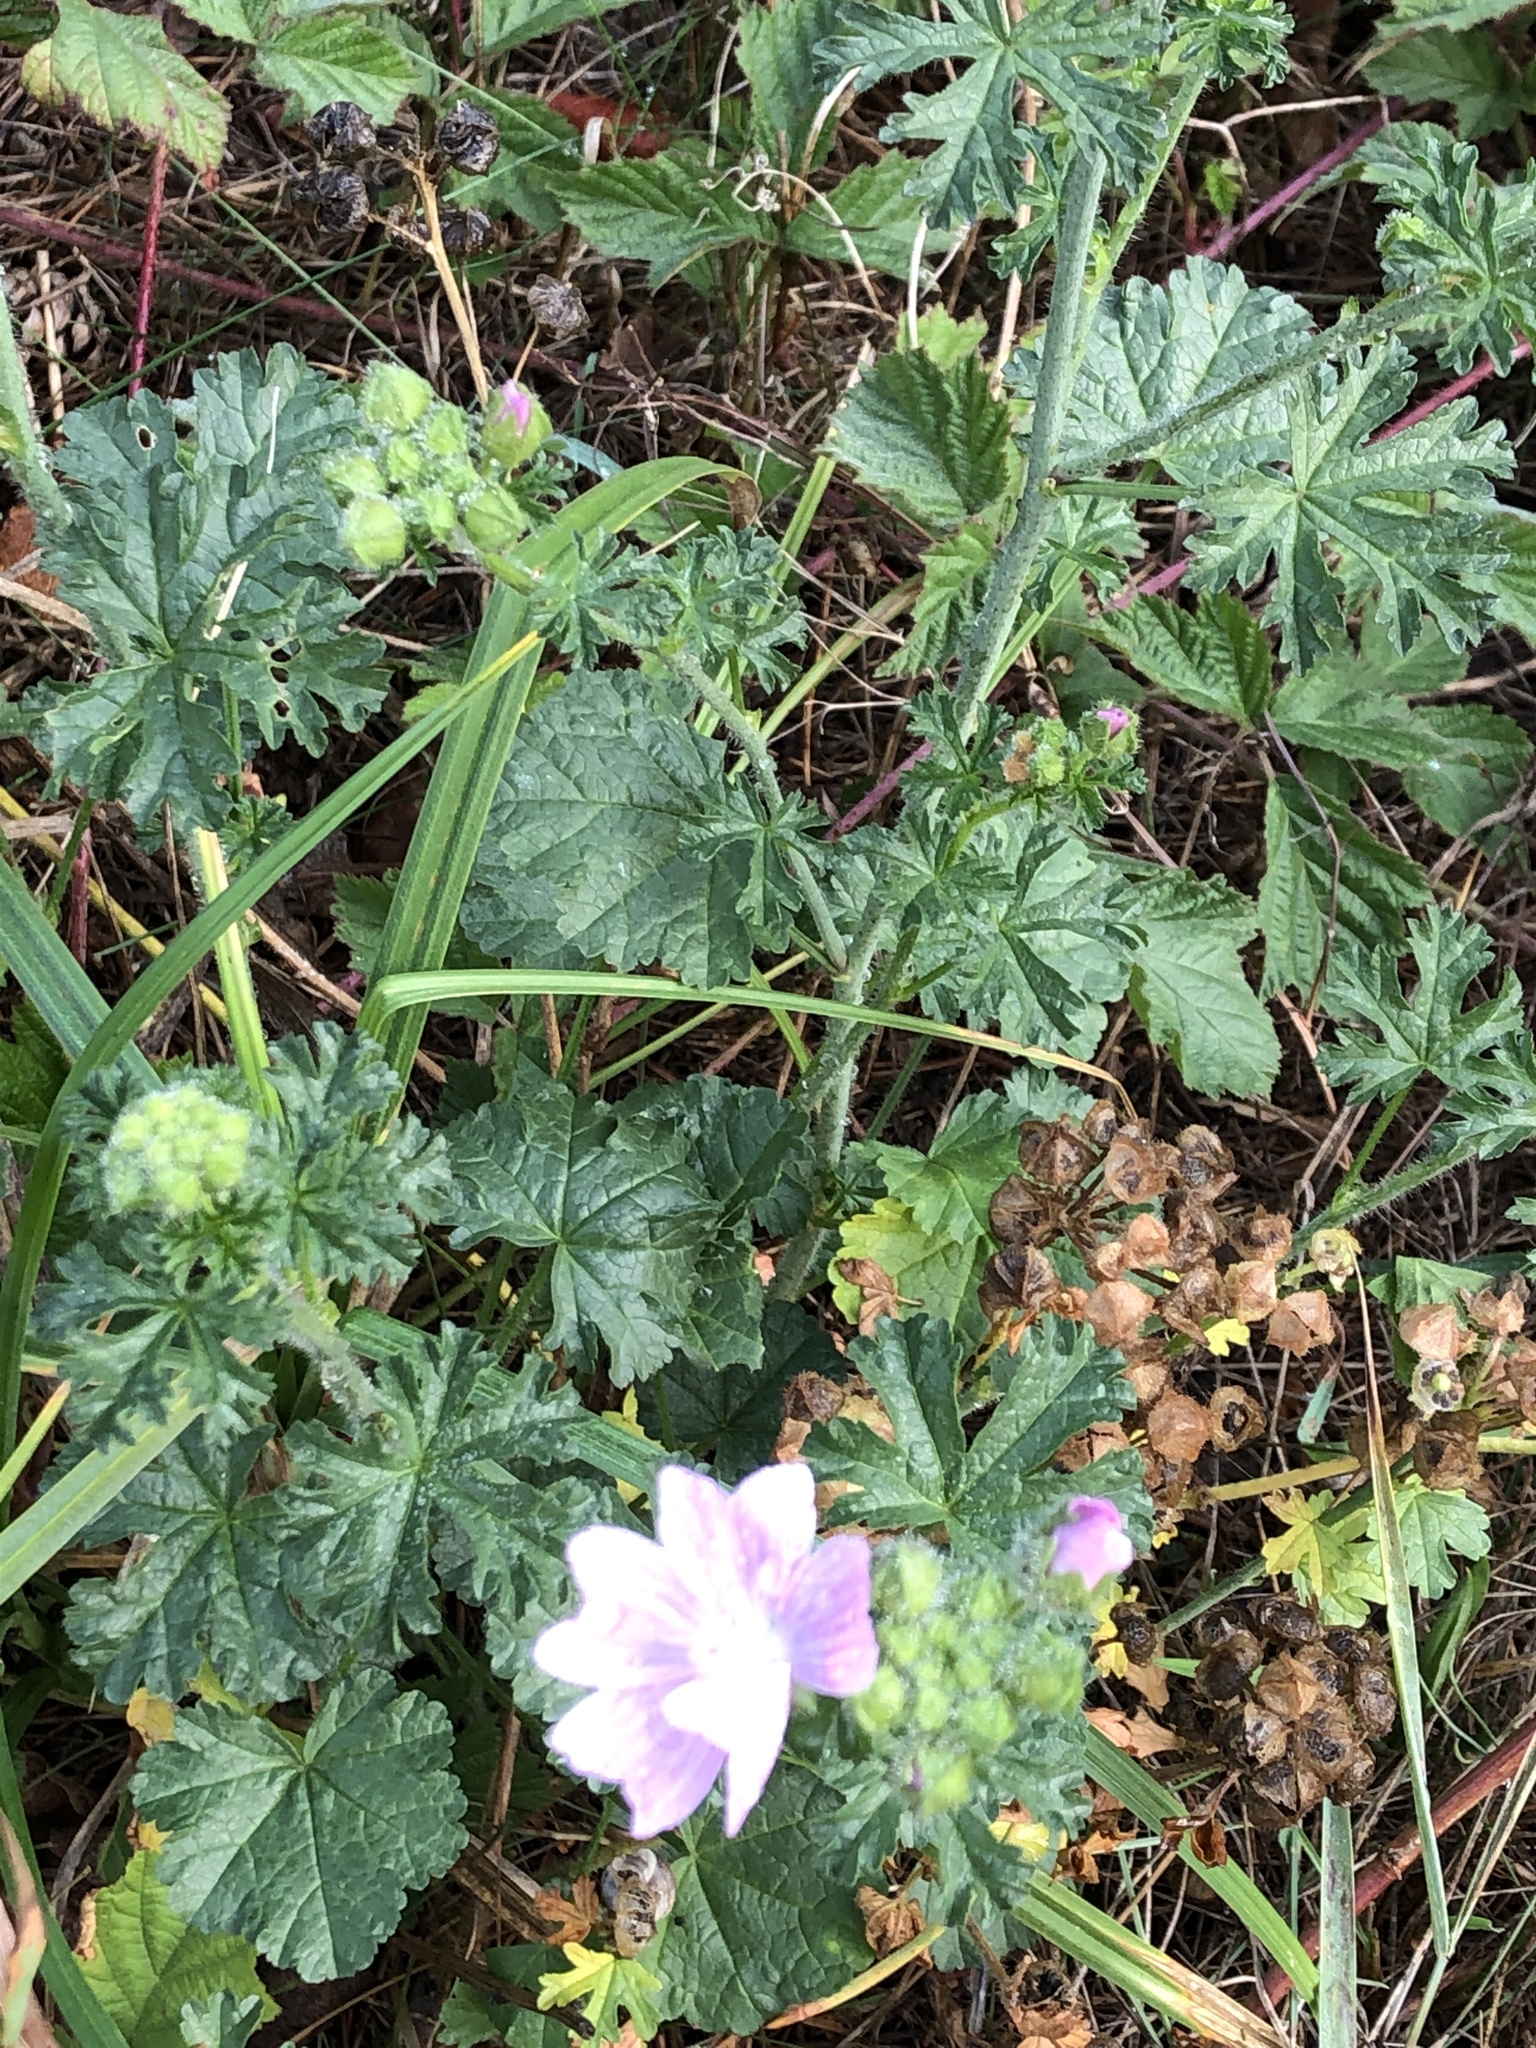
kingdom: Plantae
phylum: Tracheophyta
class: Magnoliopsida
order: Malvales
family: Malvaceae
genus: Malva
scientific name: Malva moschata
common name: Musk mallow
